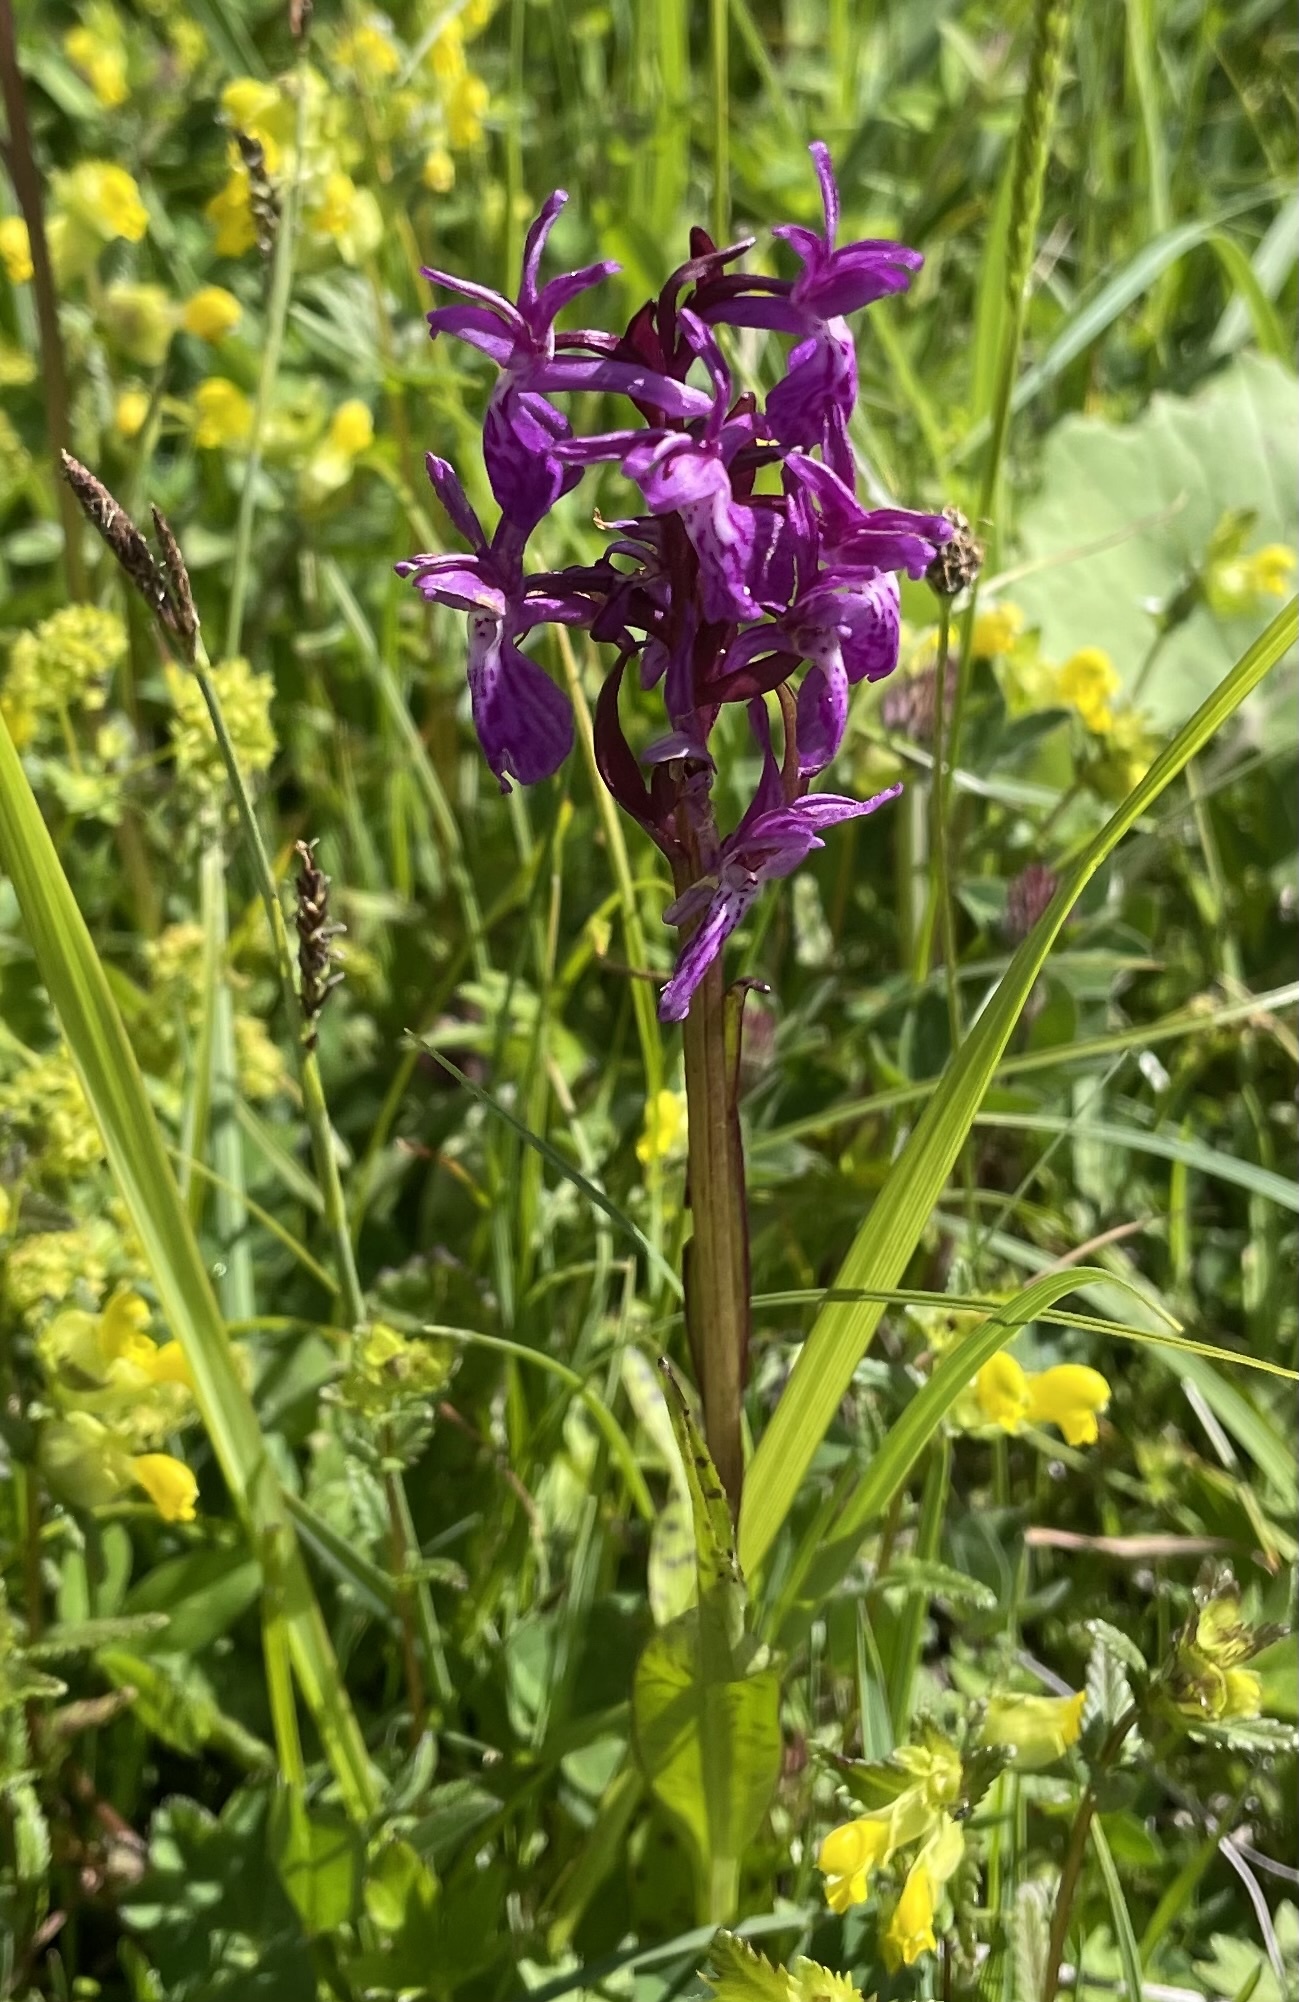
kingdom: Plantae
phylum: Tracheophyta
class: Liliopsida
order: Asparagales
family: Orchidaceae
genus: Dactylorhiza
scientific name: Dactylorhiza majalis
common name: Marsh orchid
